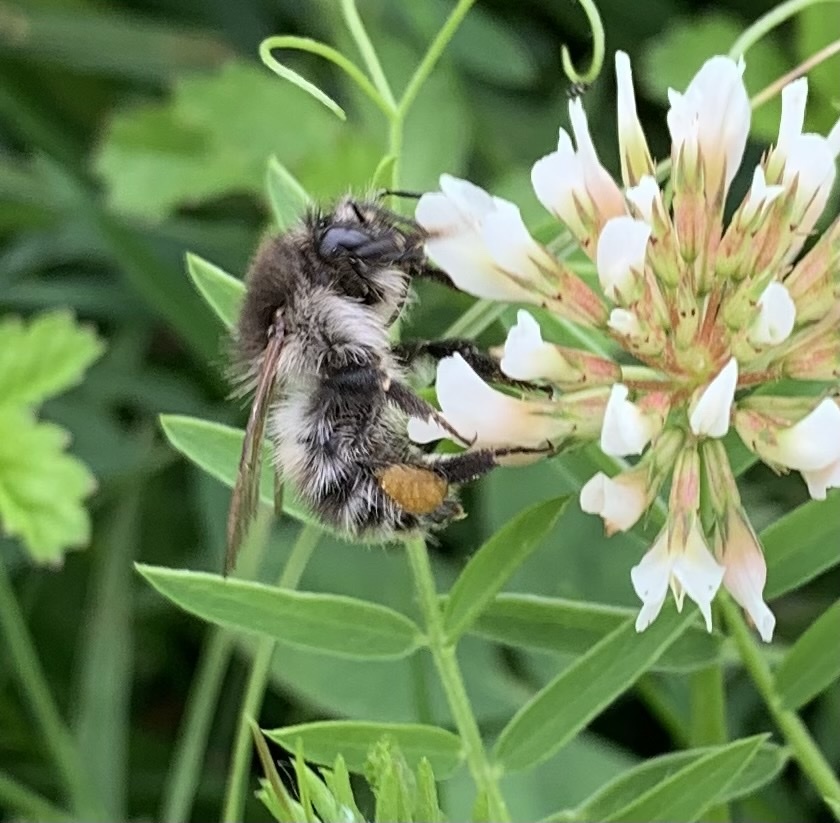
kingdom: Animalia
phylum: Arthropoda
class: Insecta
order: Hymenoptera
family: Apidae
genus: Bombus
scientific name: Bombus pascuorum
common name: Common carder bee
